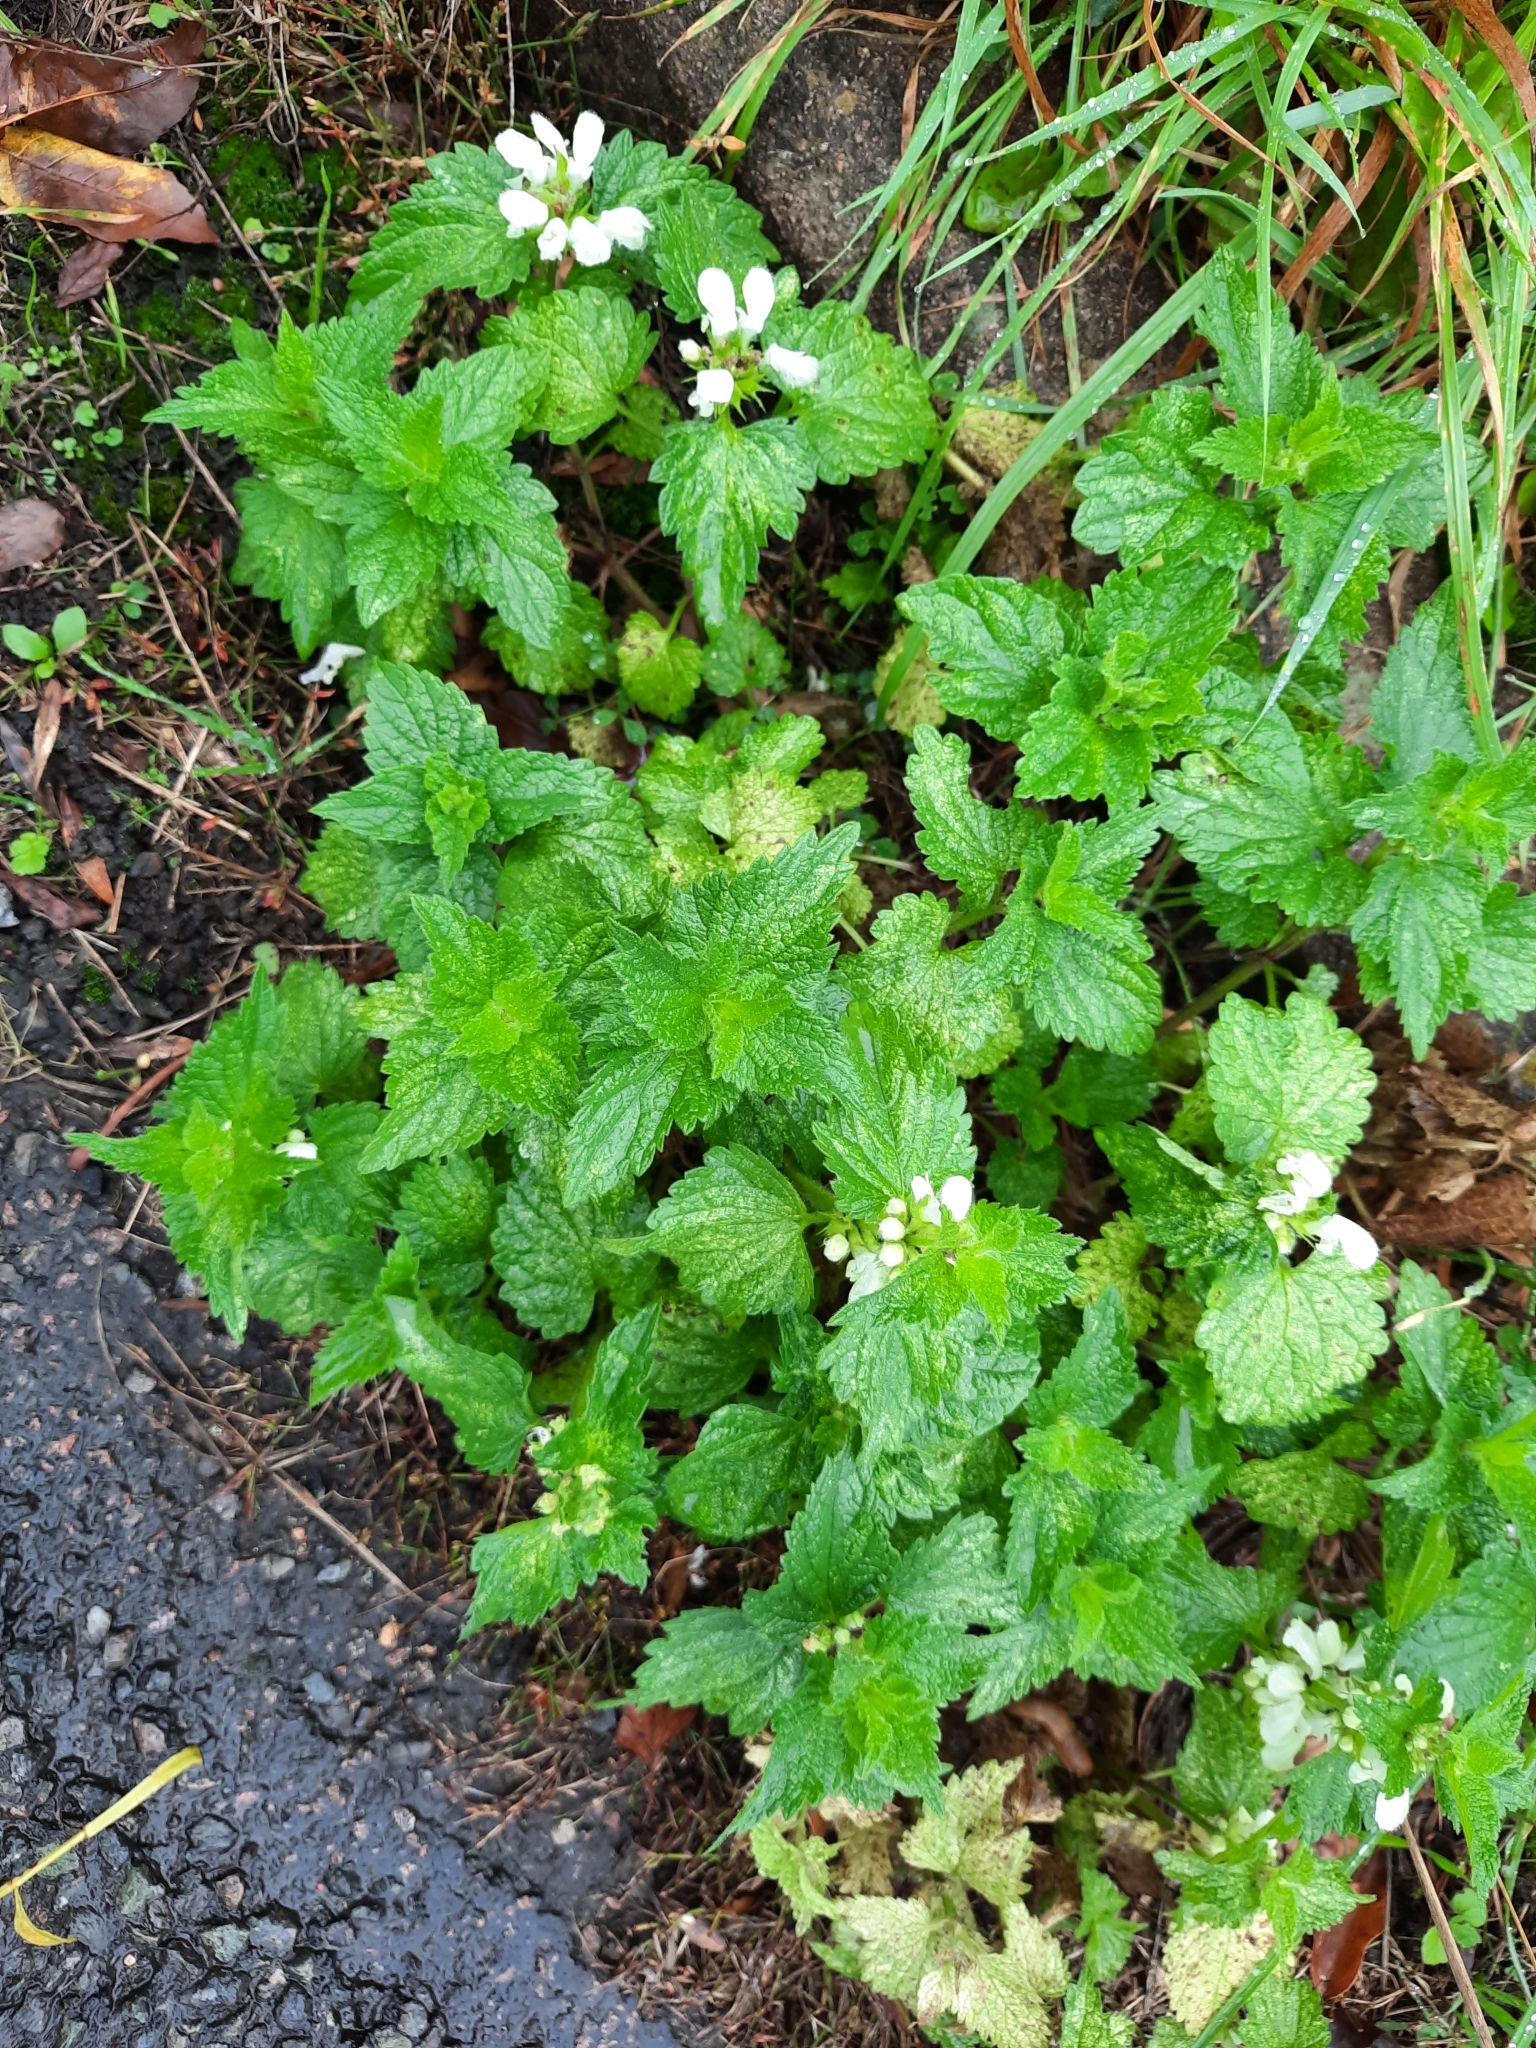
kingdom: Plantae
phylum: Tracheophyta
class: Magnoliopsida
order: Lamiales
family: Lamiaceae
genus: Lamium
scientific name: Lamium album
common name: White dead-nettle
